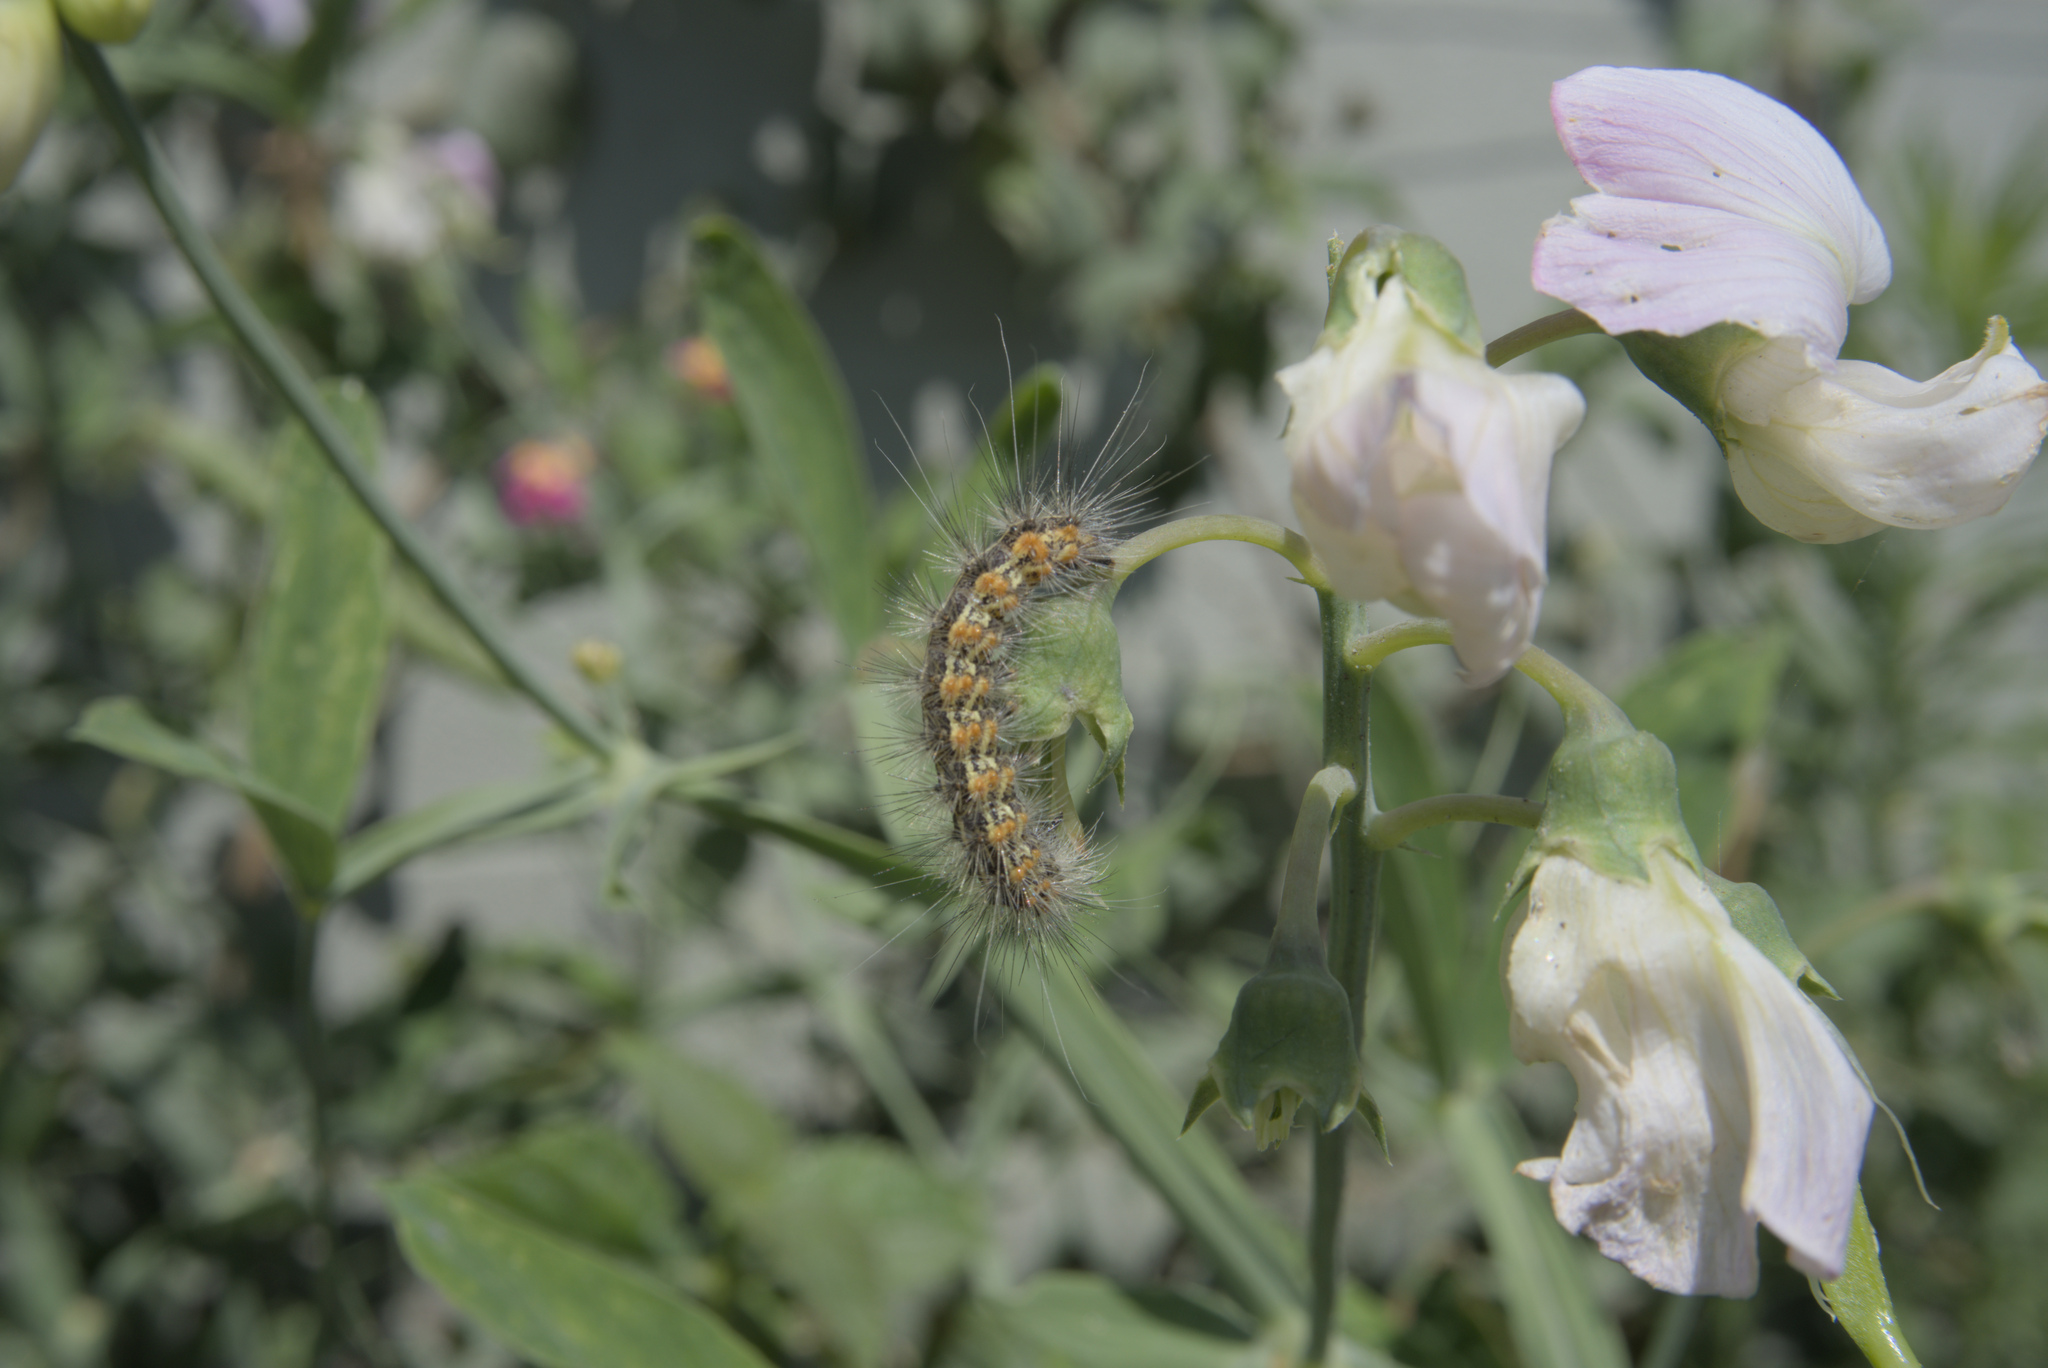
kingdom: Animalia
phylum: Arthropoda
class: Insecta
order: Lepidoptera
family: Erebidae
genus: Estigmene
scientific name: Estigmene acrea
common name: Salt marsh moth
